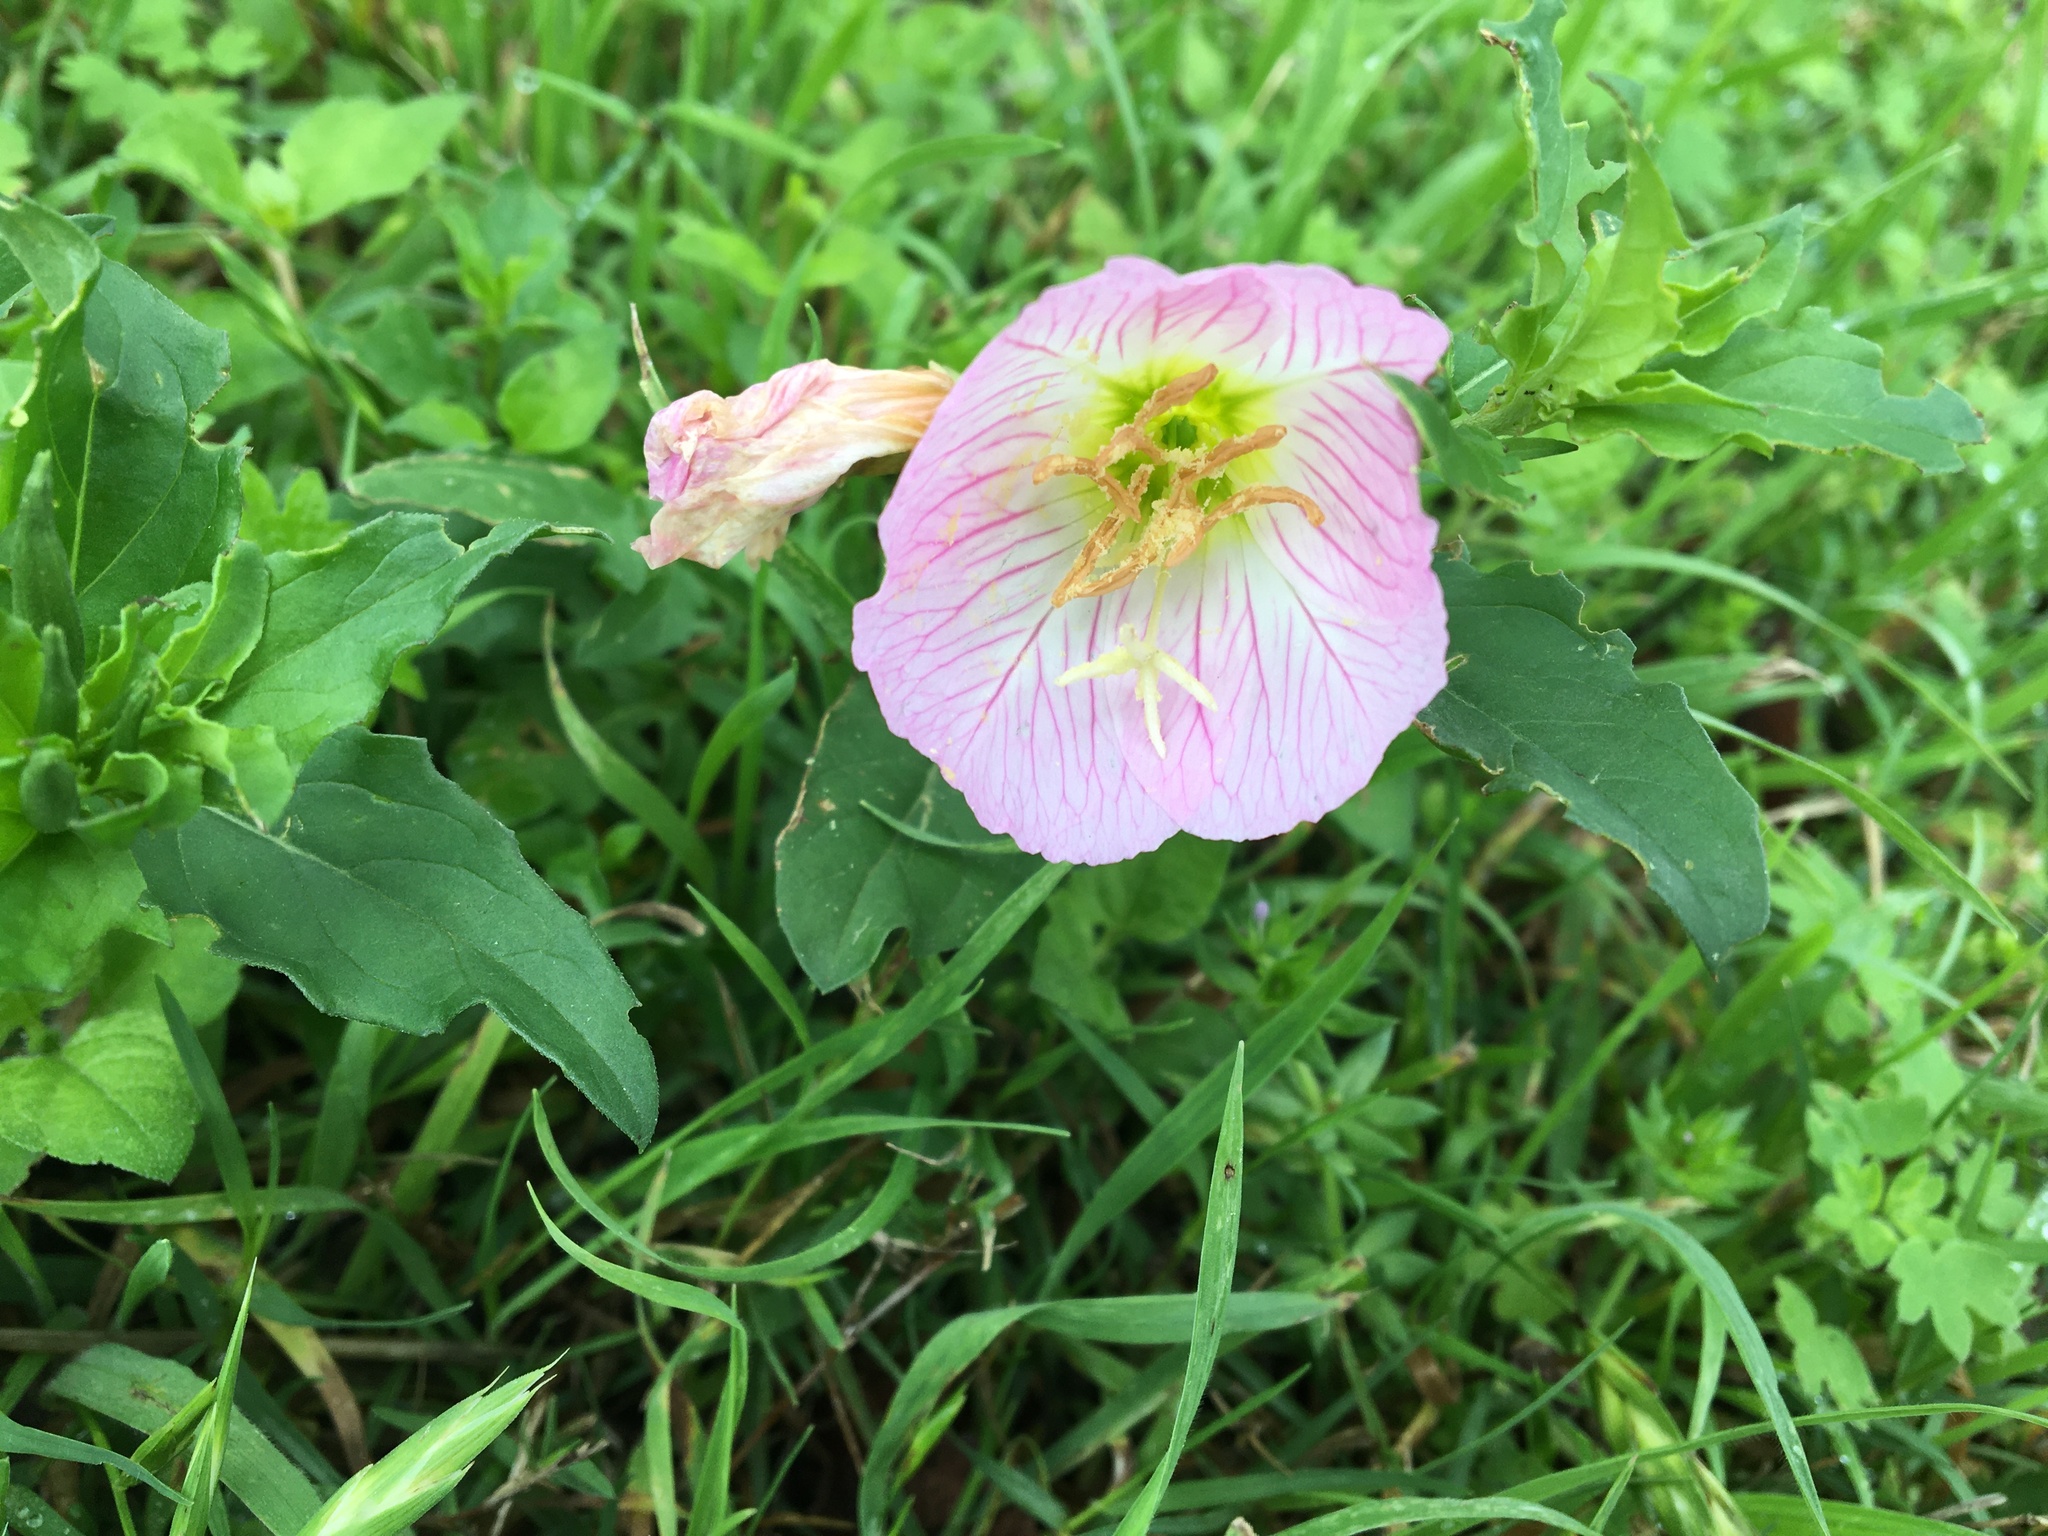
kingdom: Plantae
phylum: Tracheophyta
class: Magnoliopsida
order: Myrtales
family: Onagraceae
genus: Oenothera
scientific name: Oenothera speciosa
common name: White evening-primrose
